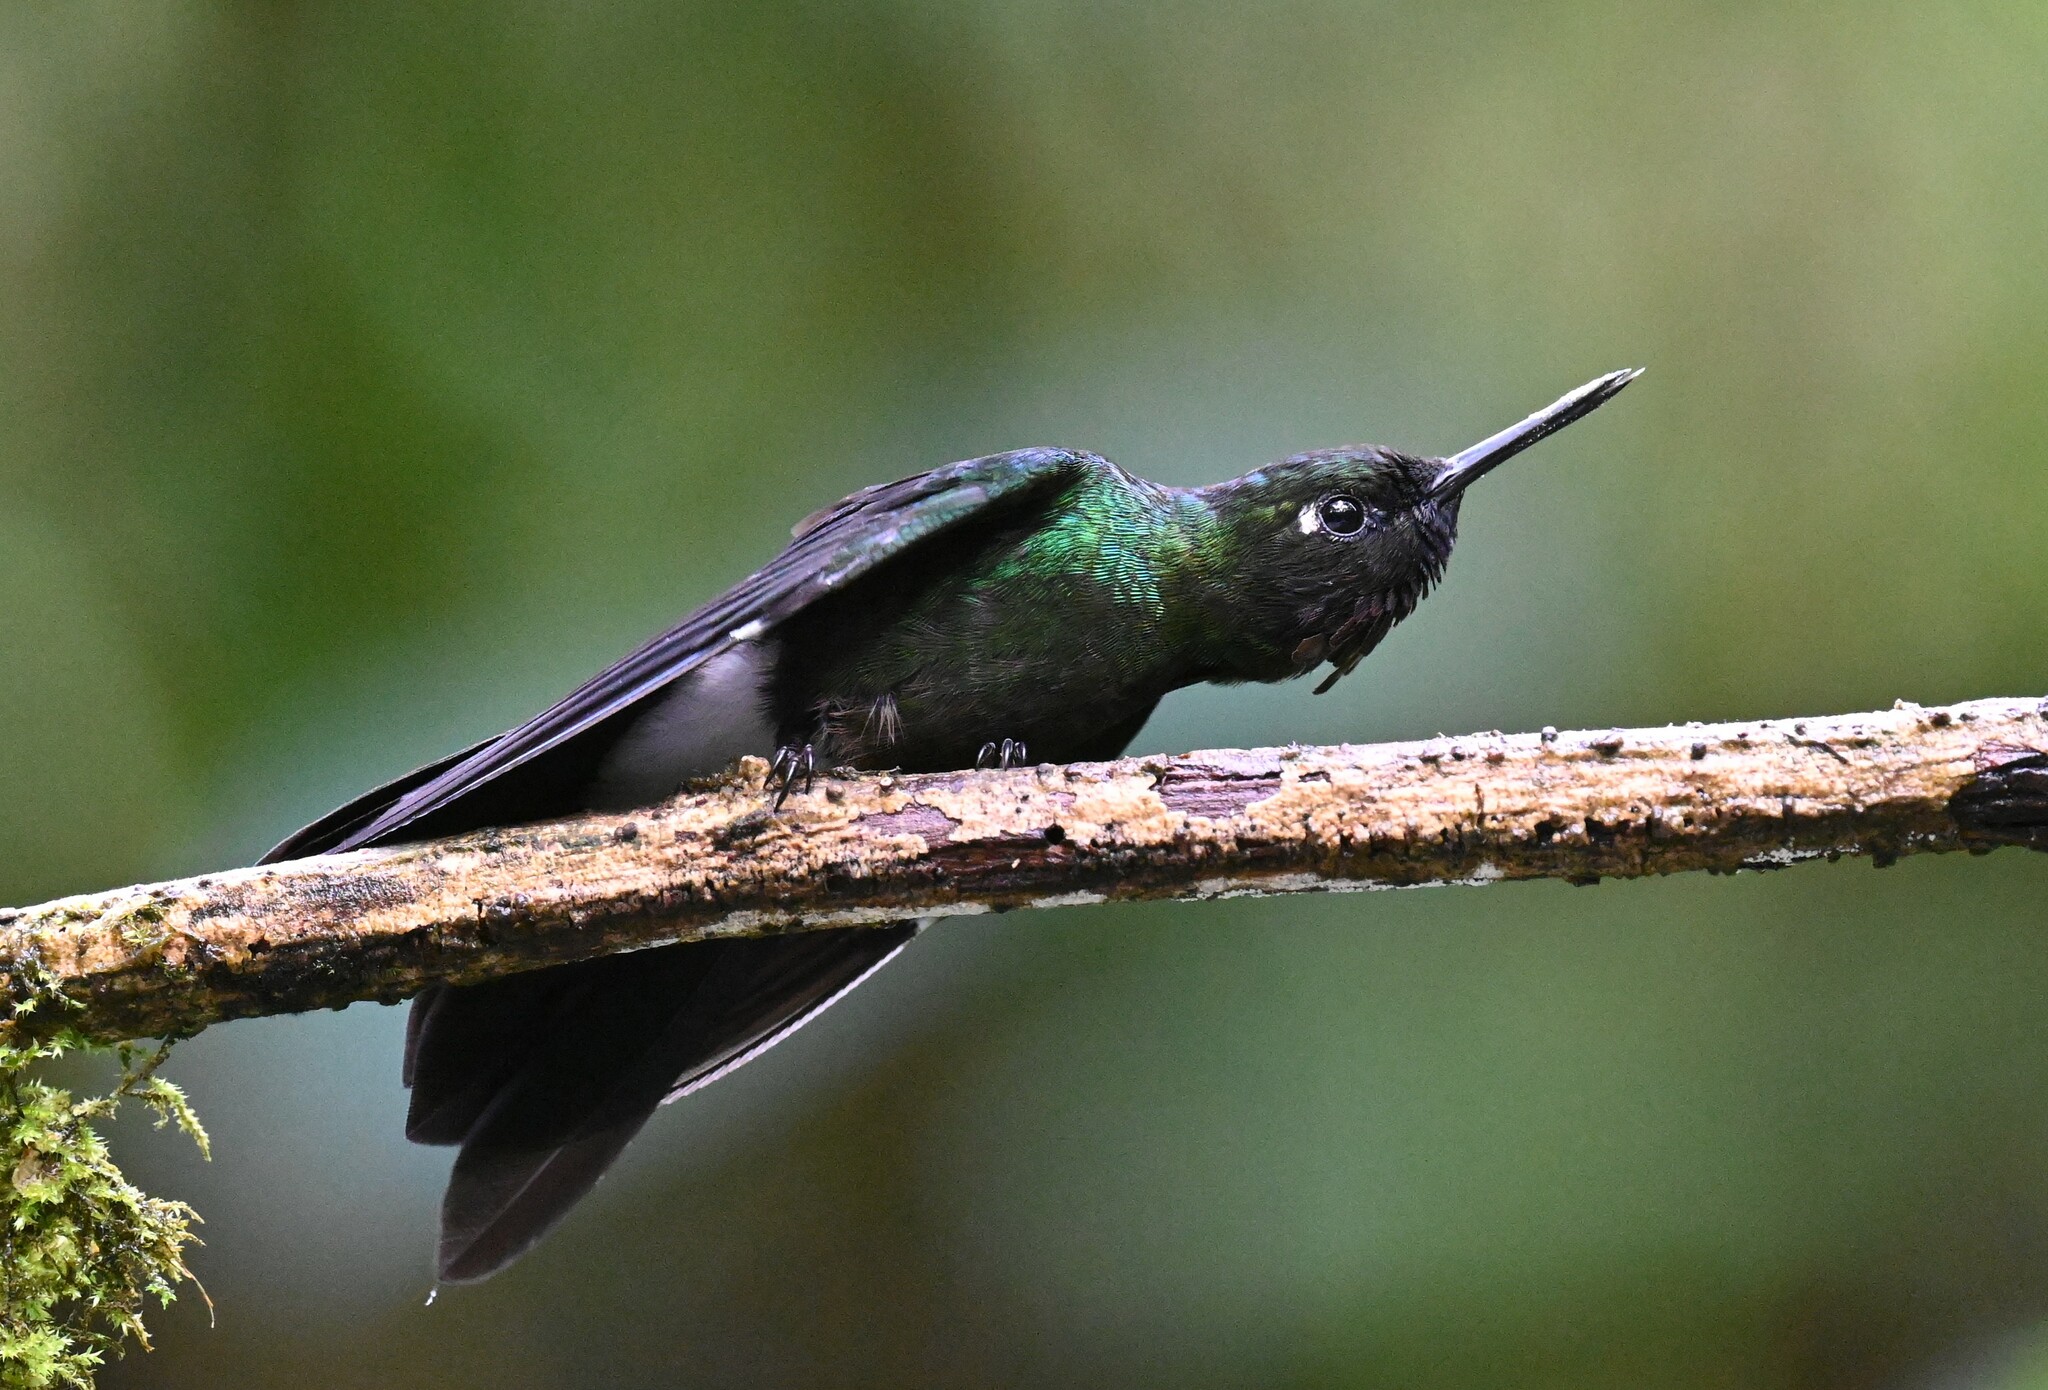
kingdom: Animalia
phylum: Chordata
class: Aves
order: Apodiformes
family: Trochilidae
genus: Heliangelus
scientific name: Heliangelus exortis
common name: Tourmaline sunangel
